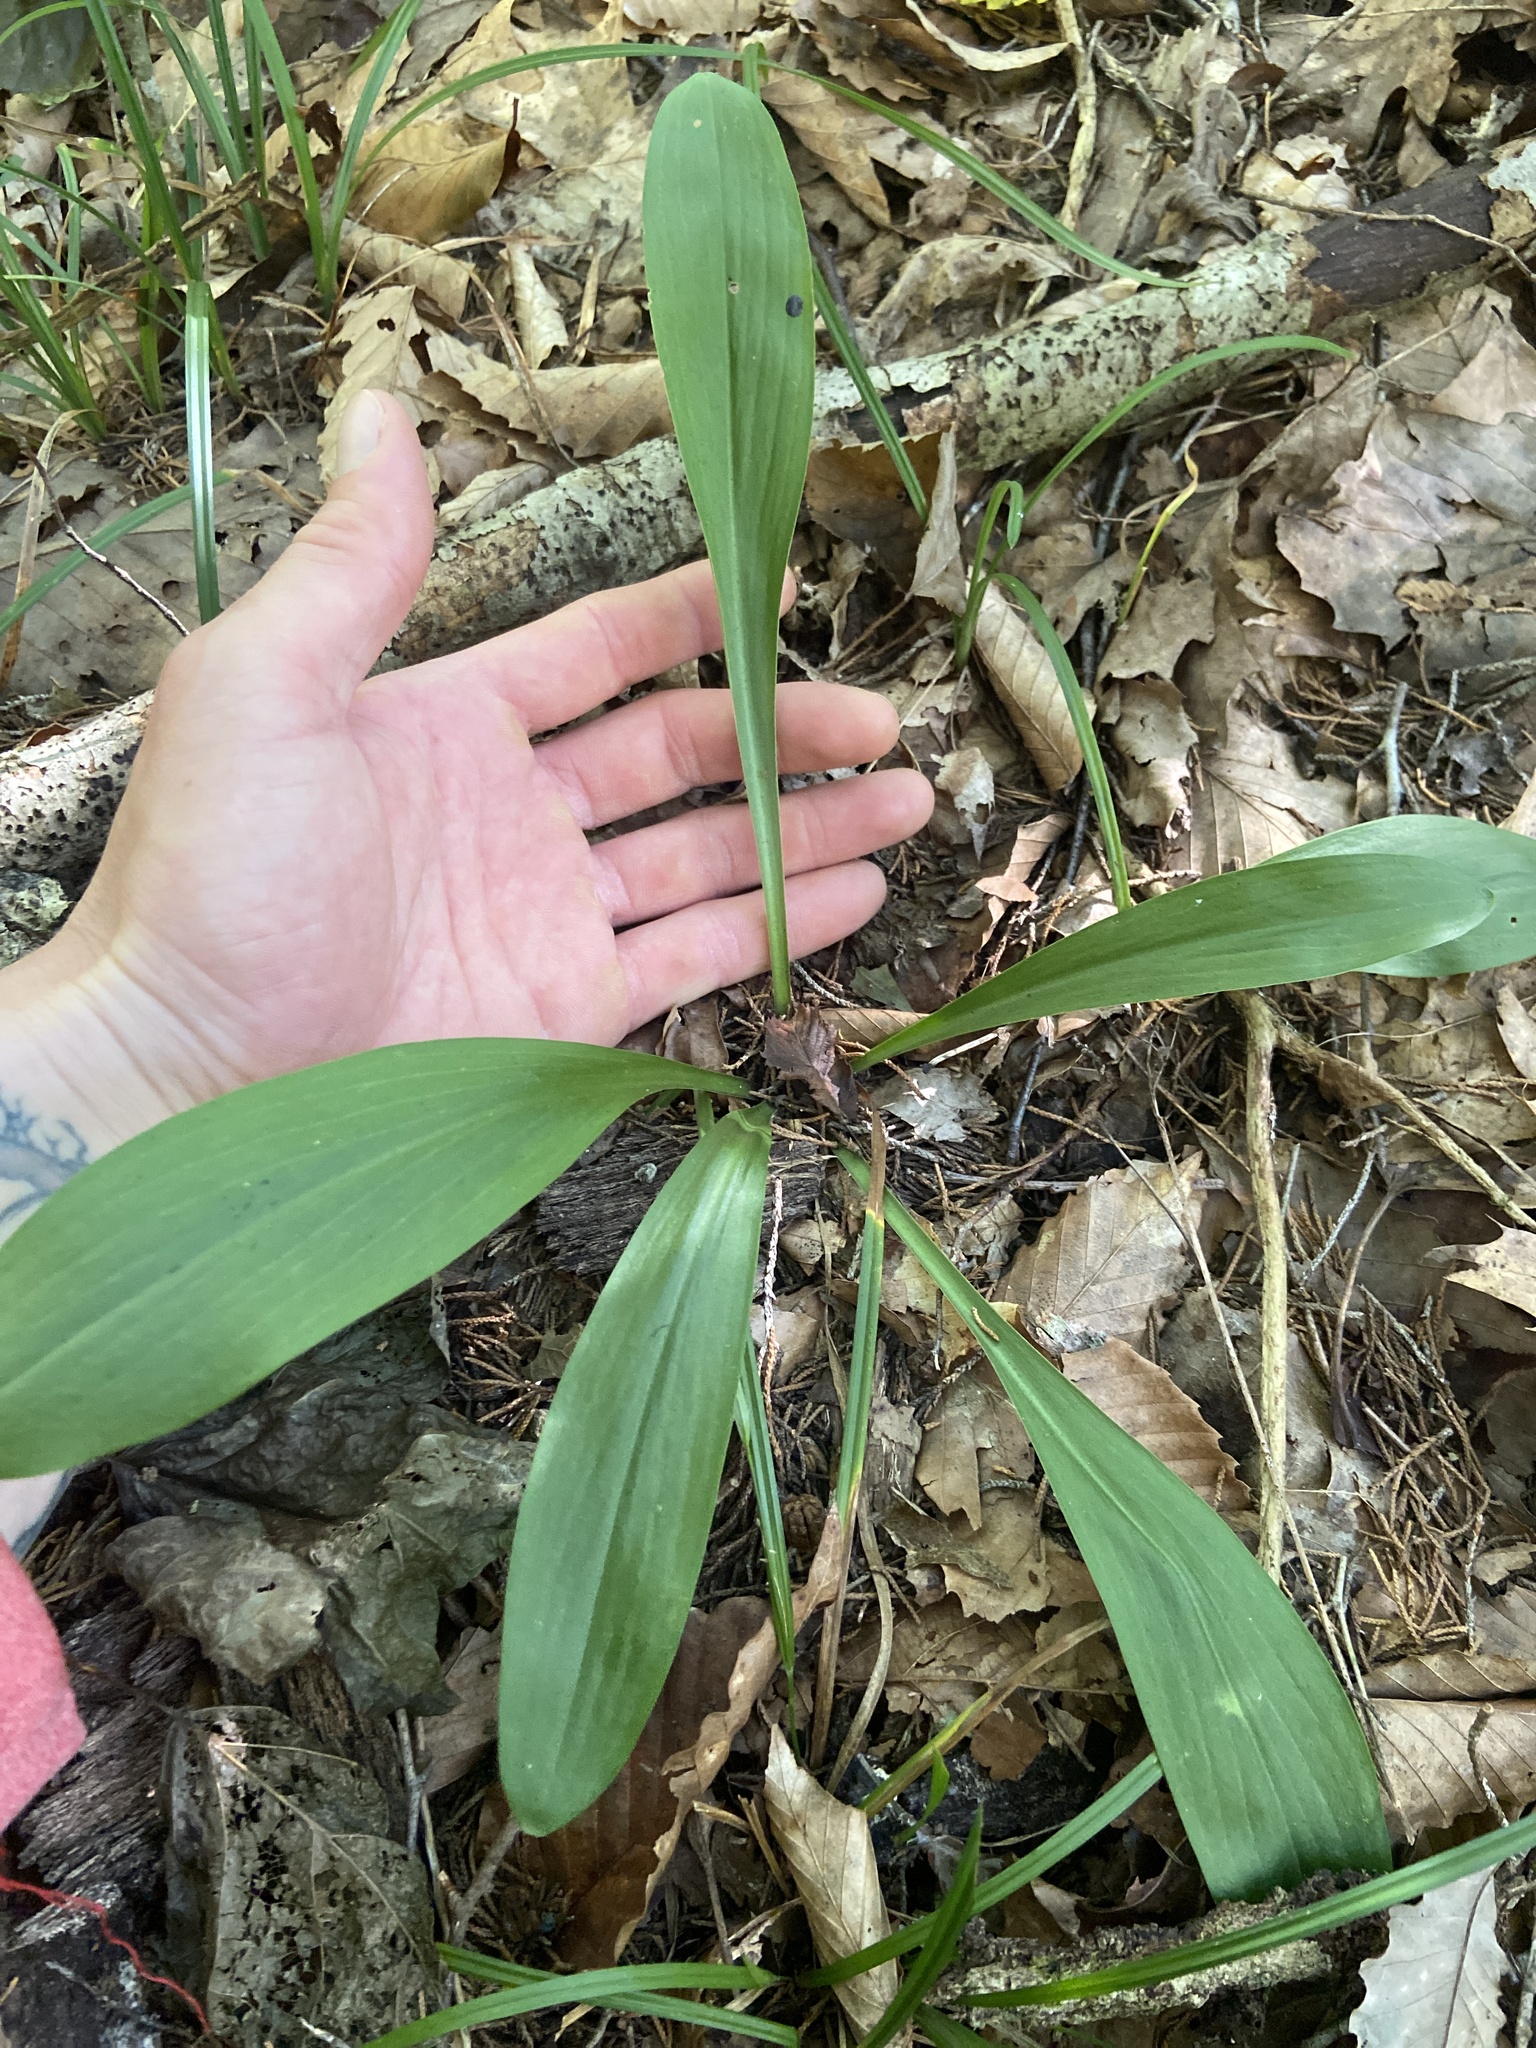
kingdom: Plantae
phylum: Tracheophyta
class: Liliopsida
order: Liliales
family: Melanthiaceae
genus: Chamaelirium
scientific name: Chamaelirium luteum
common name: Fairy-wand
